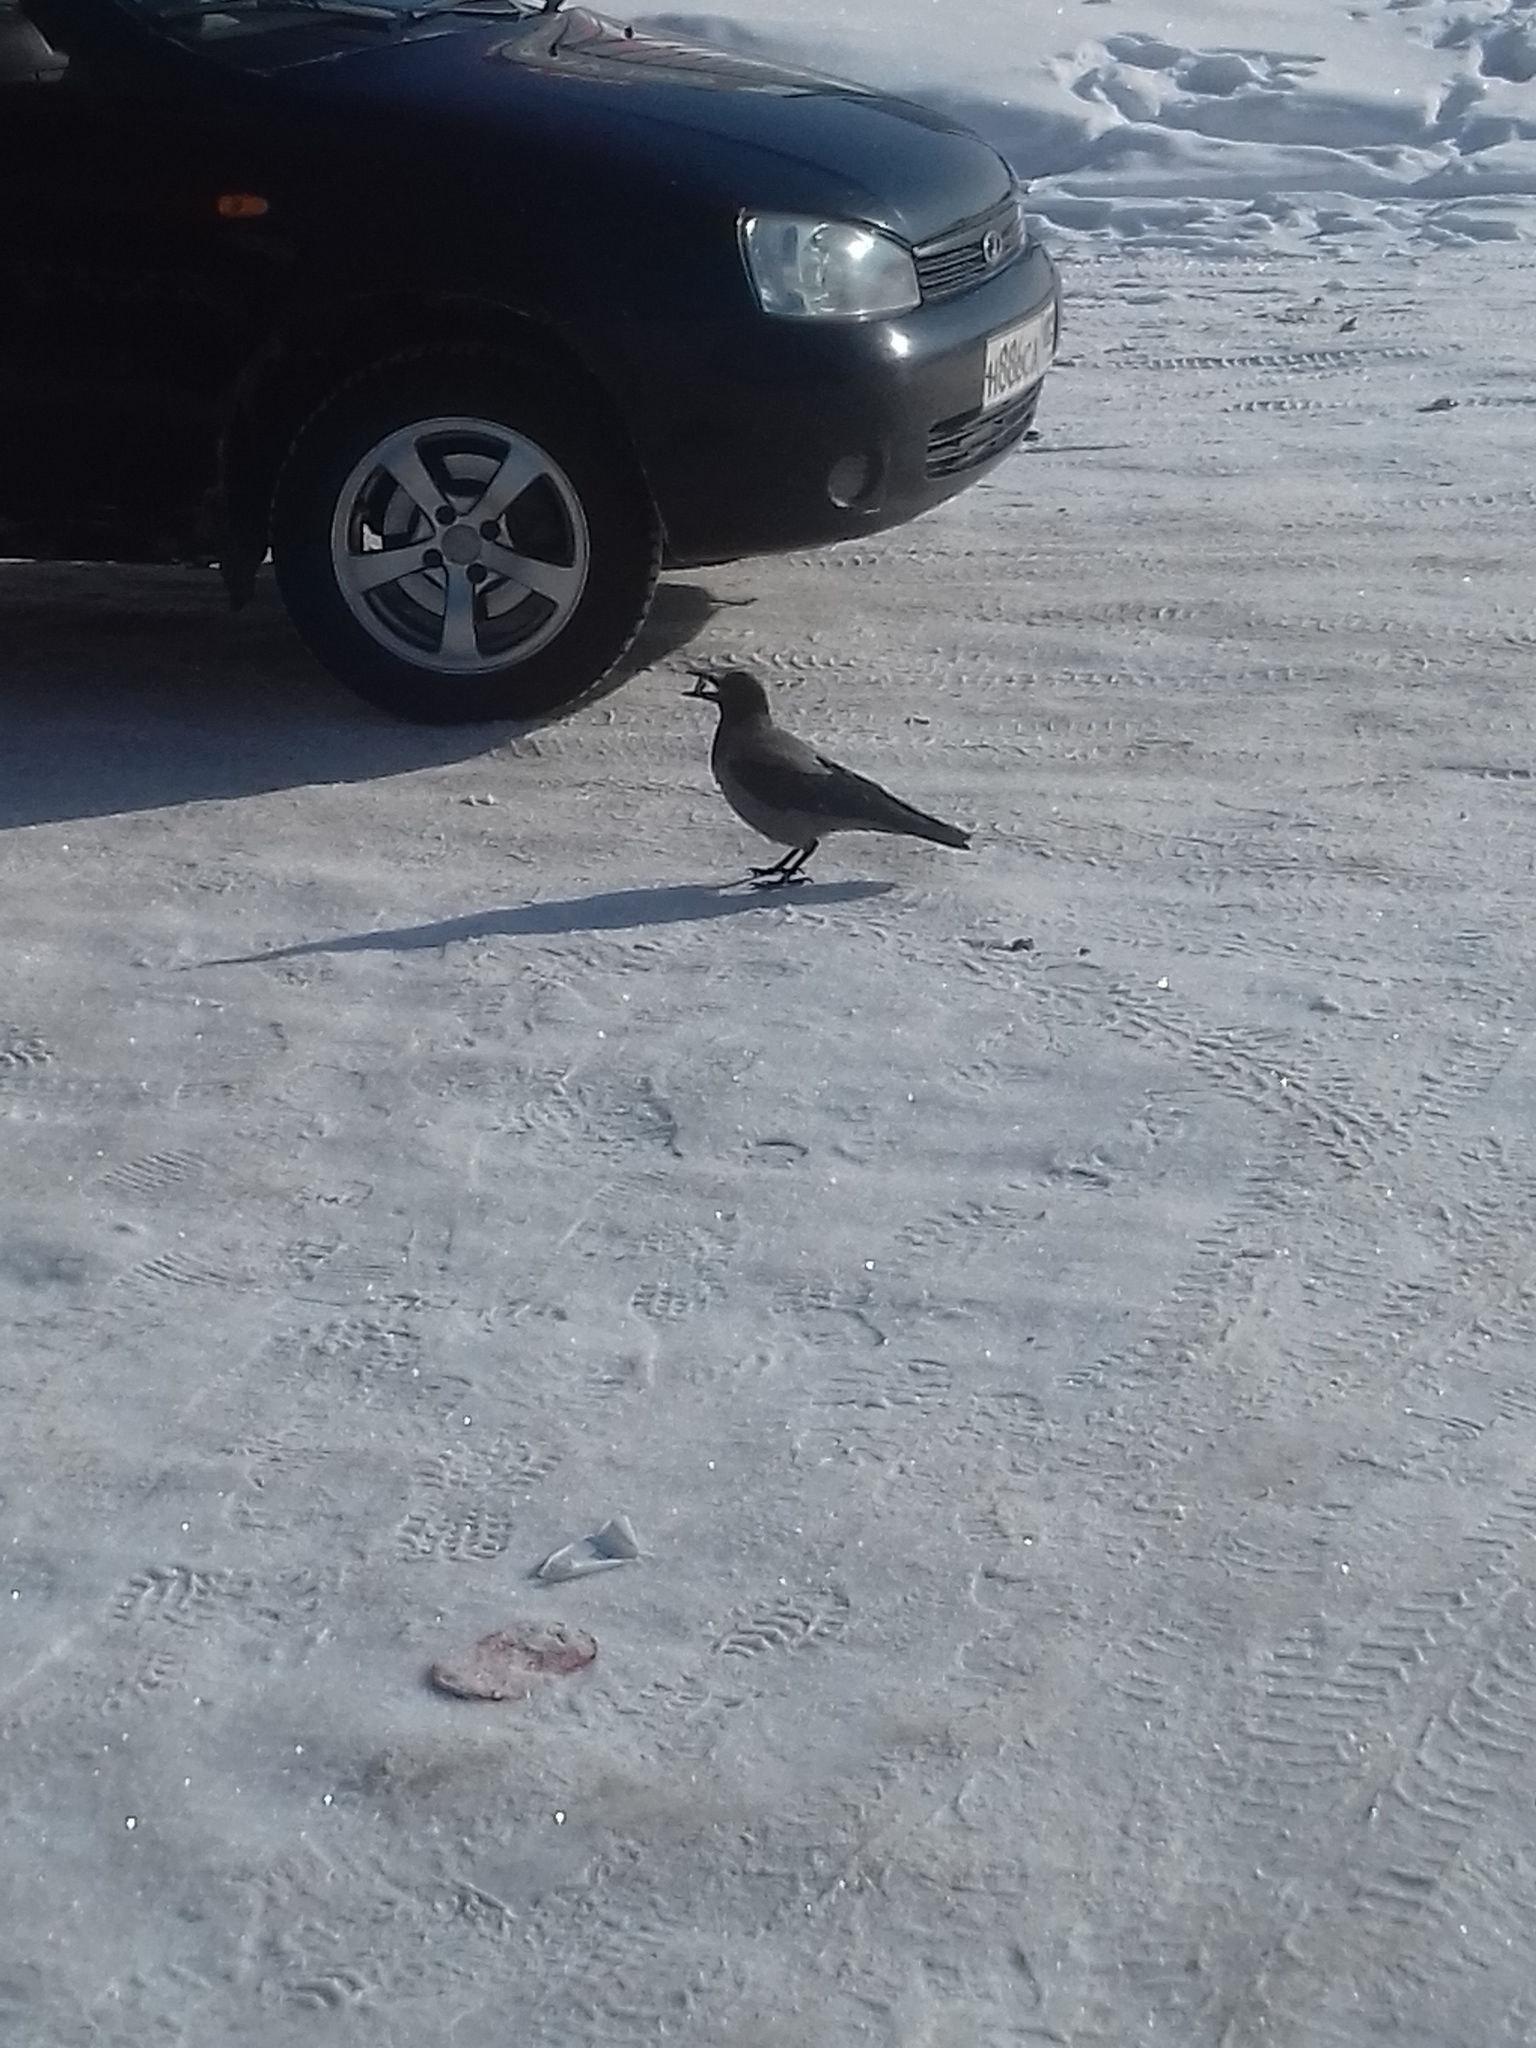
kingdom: Animalia
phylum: Chordata
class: Aves
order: Passeriformes
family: Corvidae
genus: Corvus
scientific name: Corvus cornix
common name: Hooded crow
